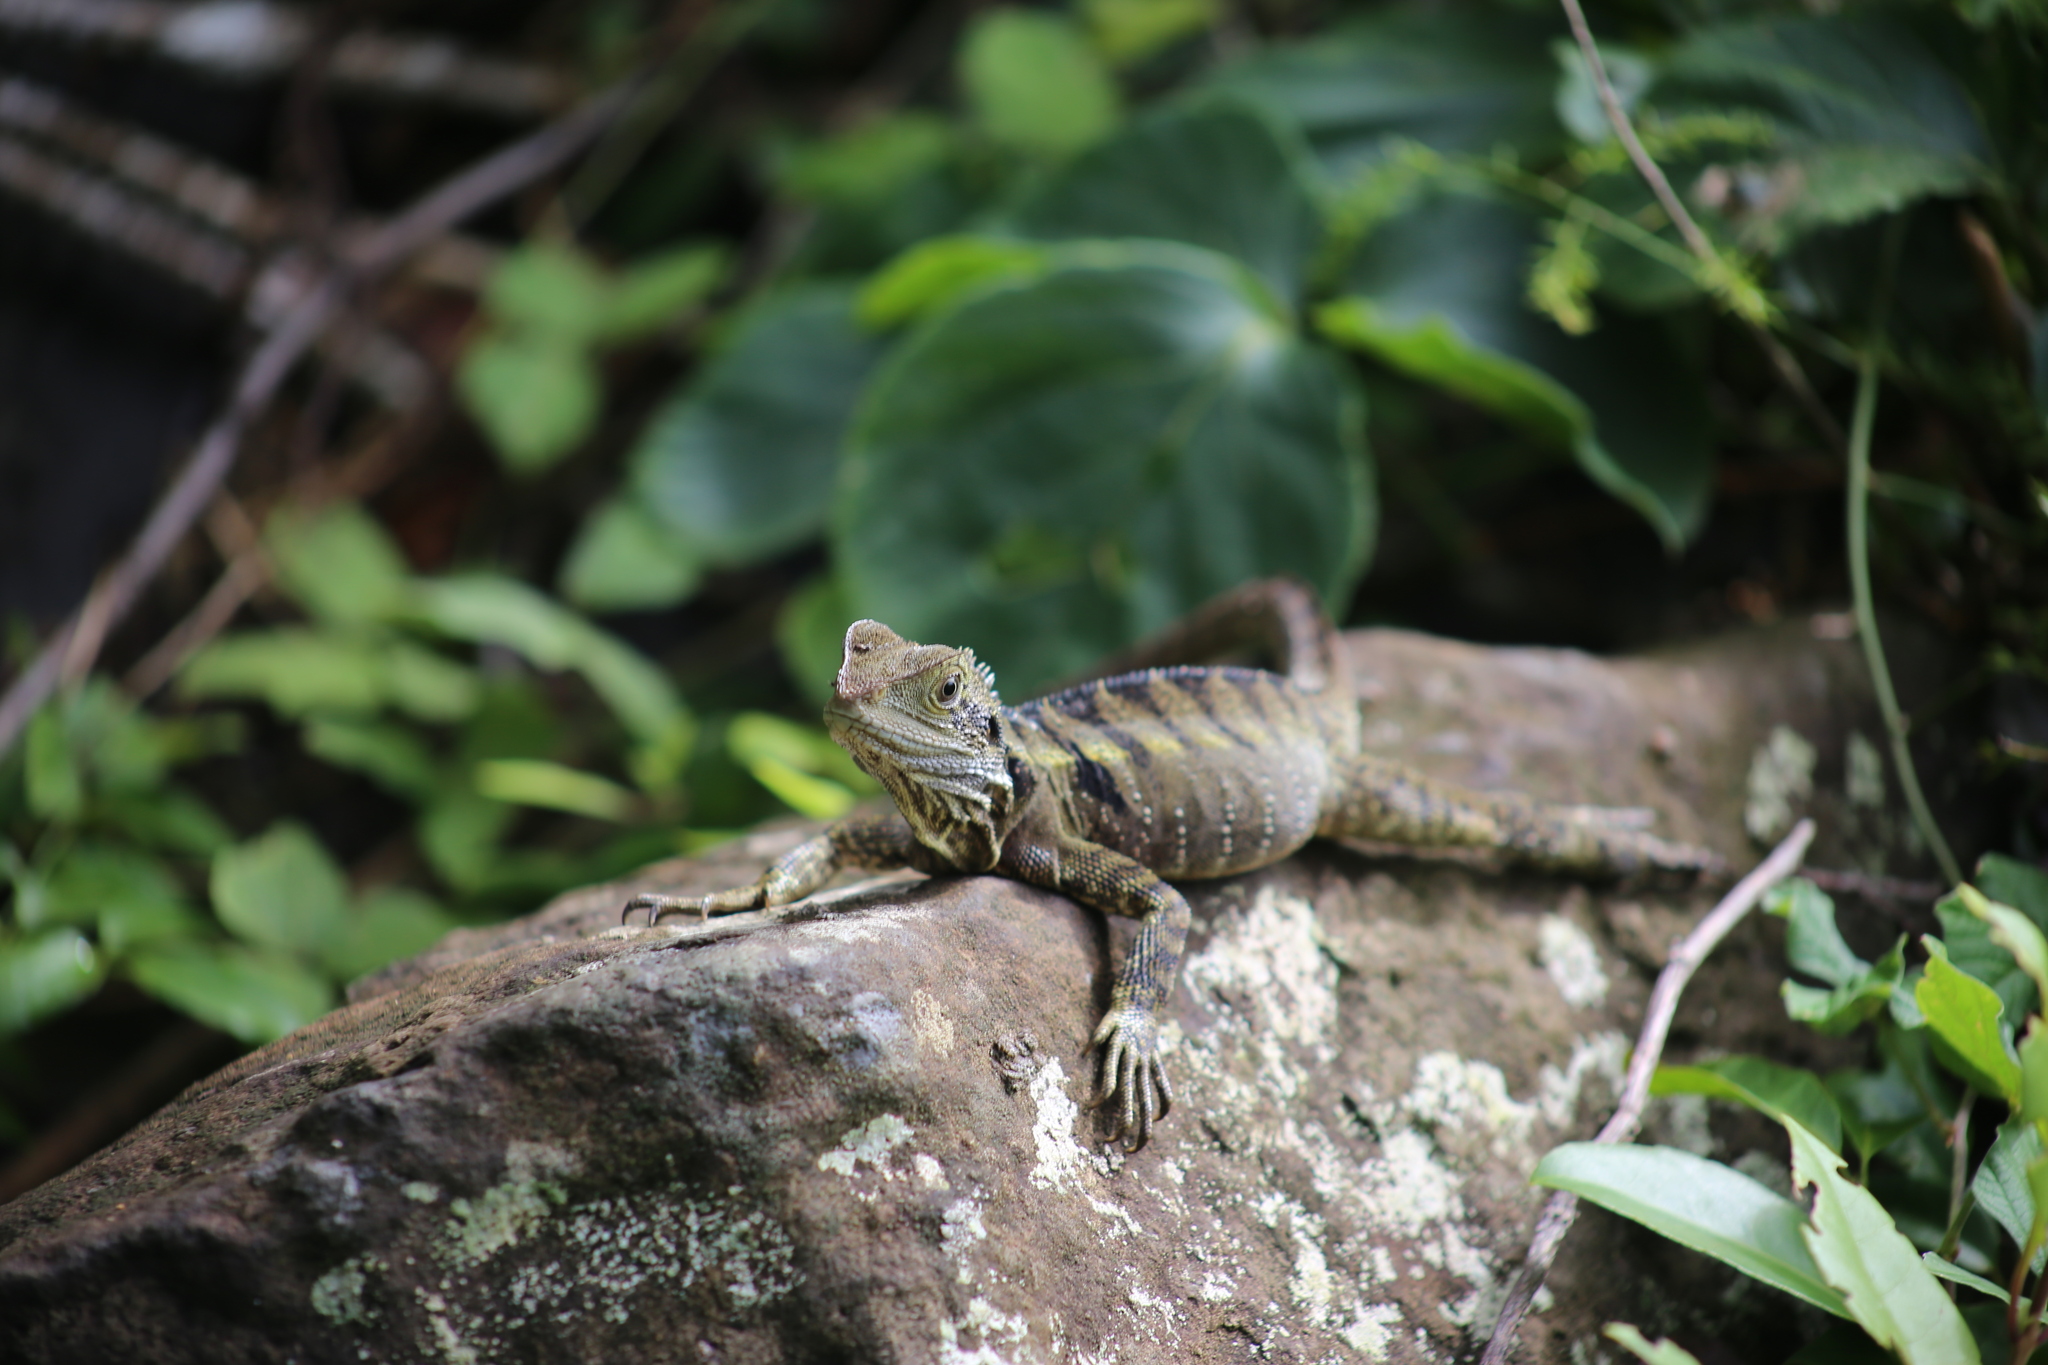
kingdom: Animalia
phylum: Chordata
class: Squamata
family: Agamidae
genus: Intellagama
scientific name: Intellagama lesueurii
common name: Eastern water dragon
